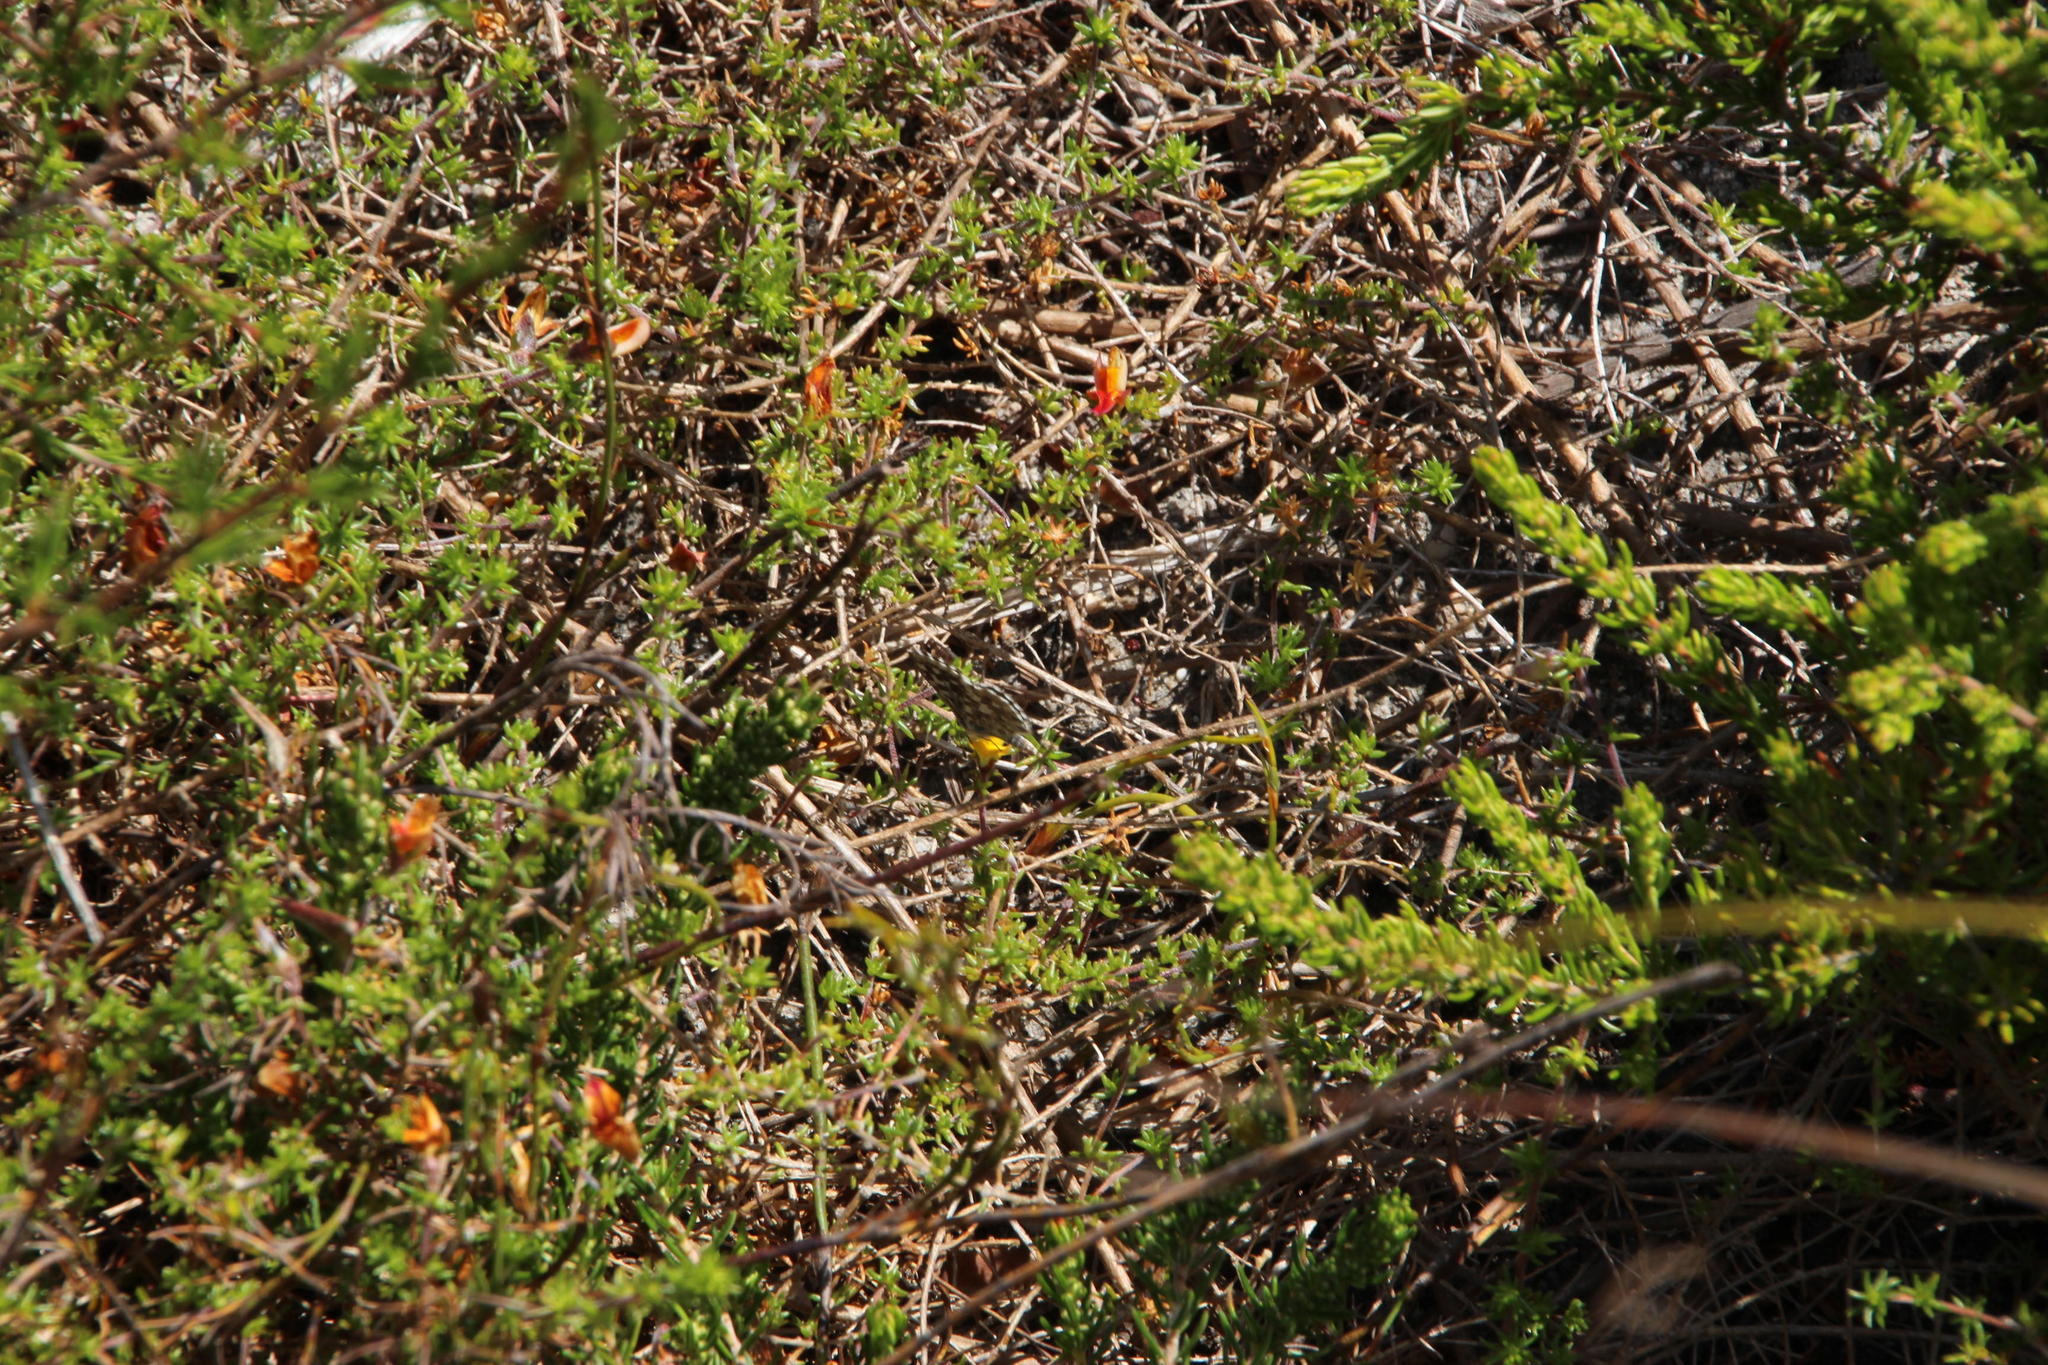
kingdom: Plantae
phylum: Tracheophyta
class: Magnoliopsida
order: Fabales
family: Fabaceae
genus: Aspalathus
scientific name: Aspalathus retroflexa
